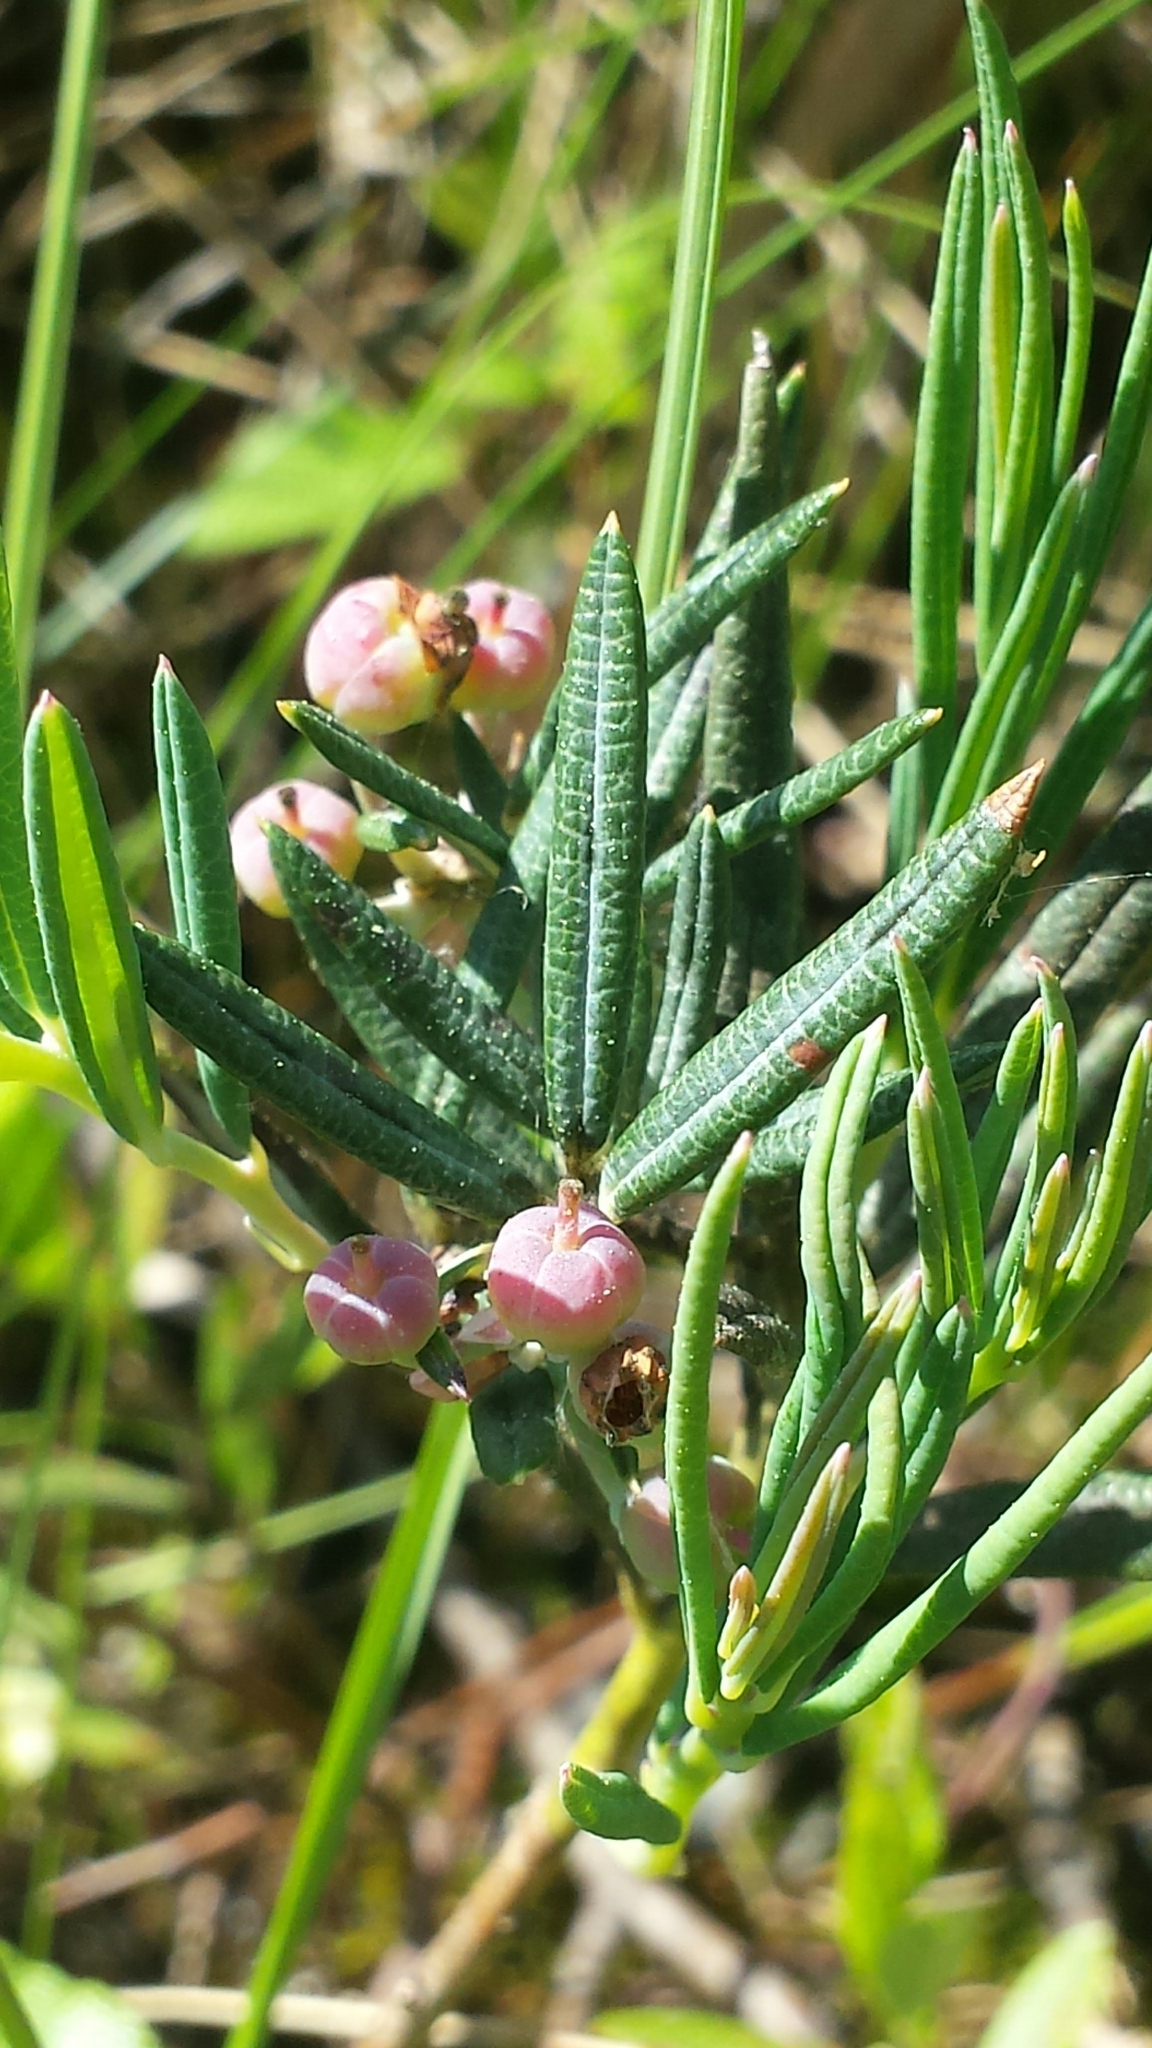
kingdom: Plantae
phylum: Tracheophyta
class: Magnoliopsida
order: Ericales
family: Ericaceae
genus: Andromeda
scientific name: Andromeda polifolia
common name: Bog-rosemary
